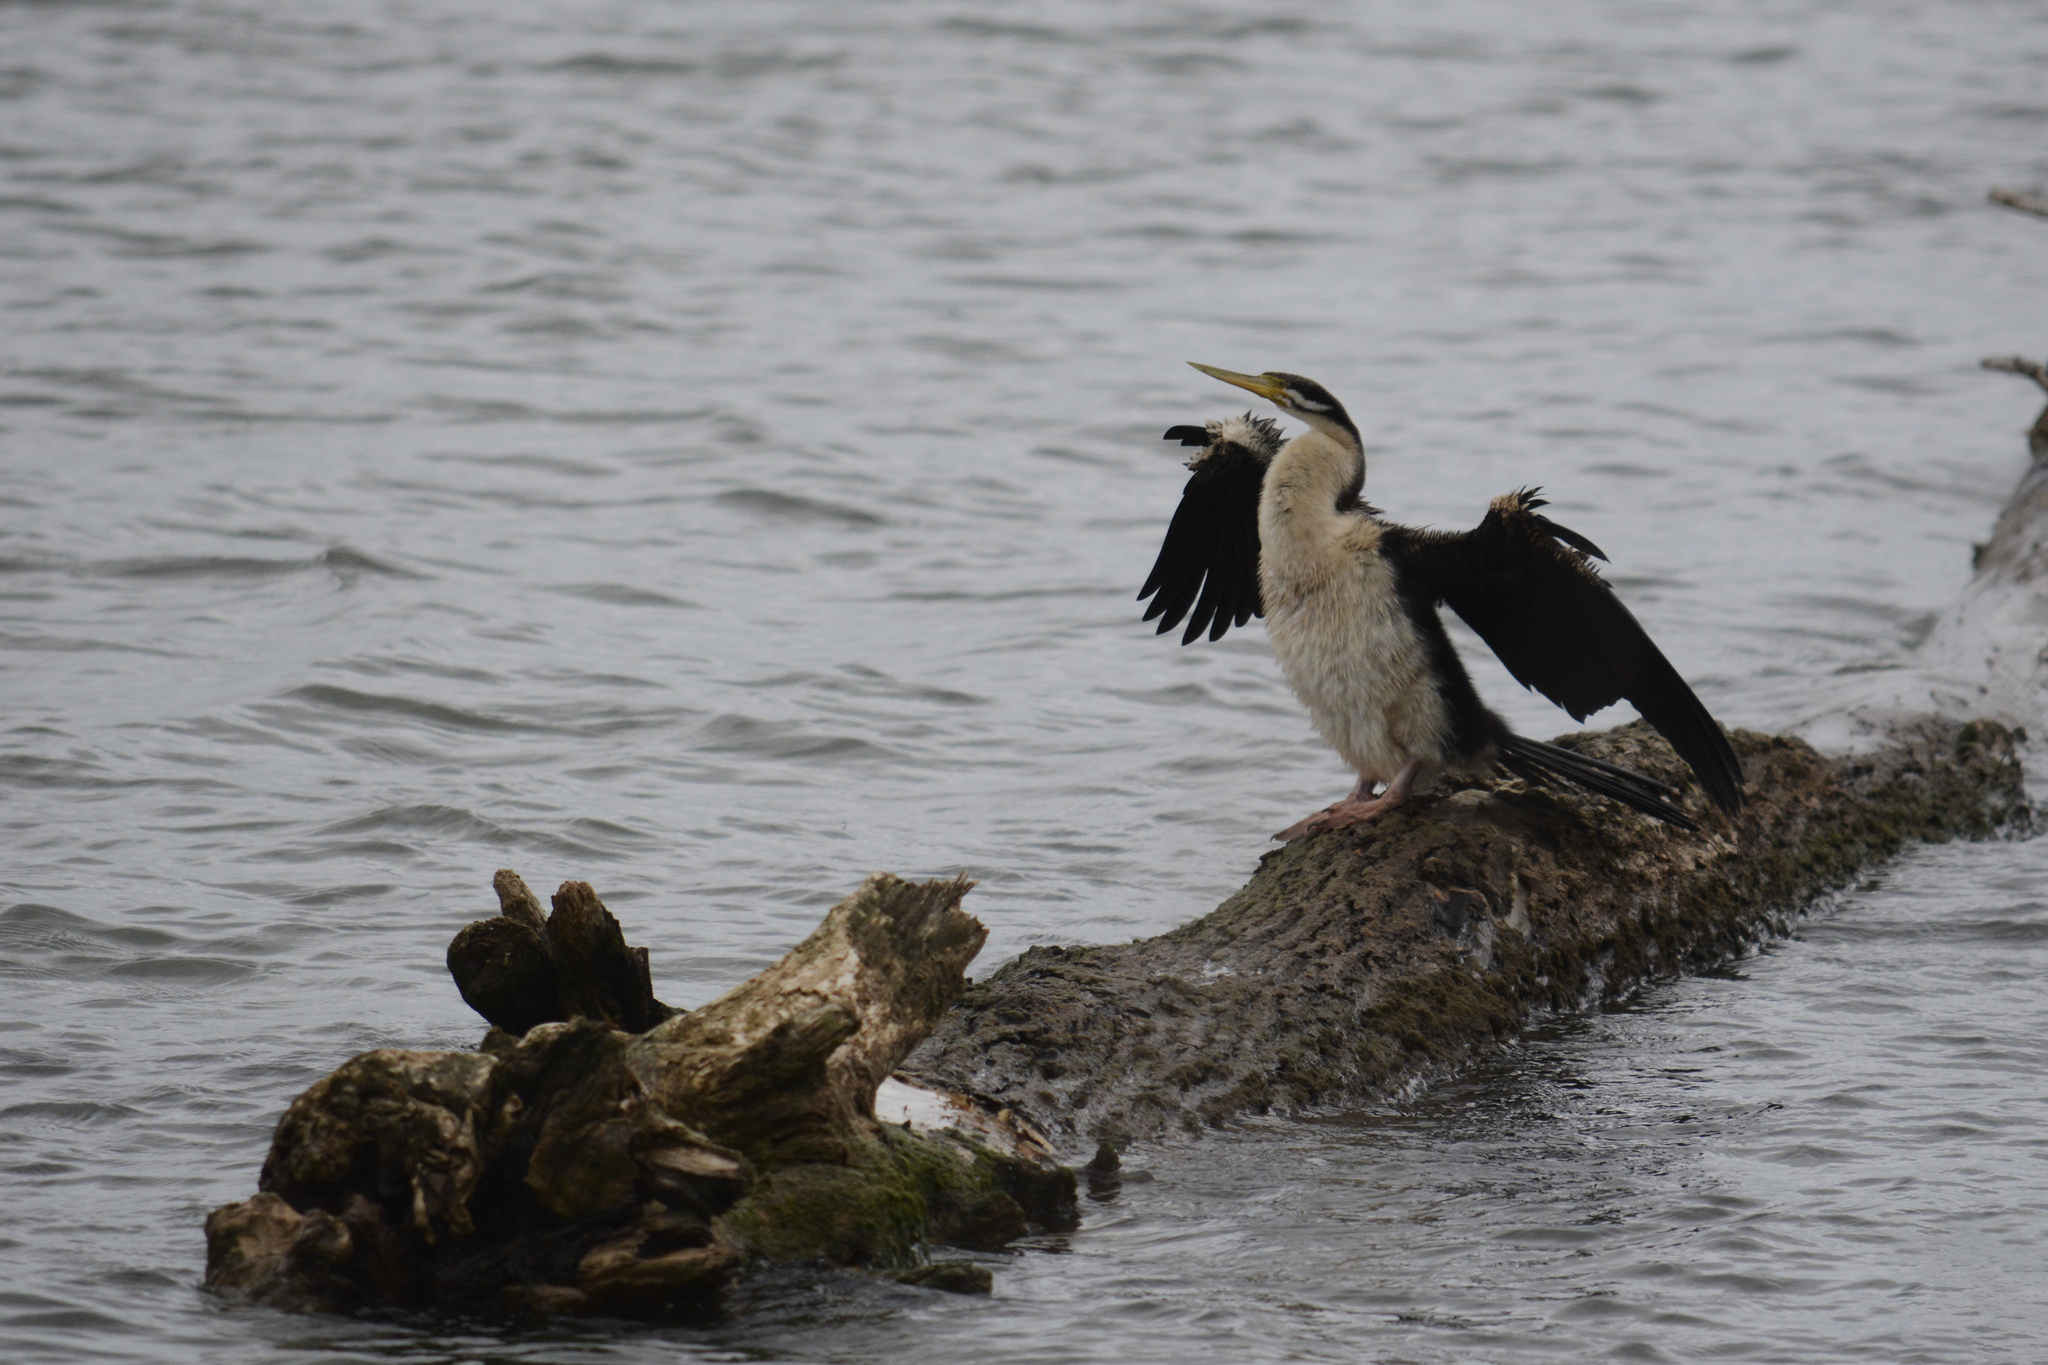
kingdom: Animalia
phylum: Chordata
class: Aves
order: Suliformes
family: Anhingidae
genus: Anhinga
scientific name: Anhinga novaehollandiae
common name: Australasian darter
